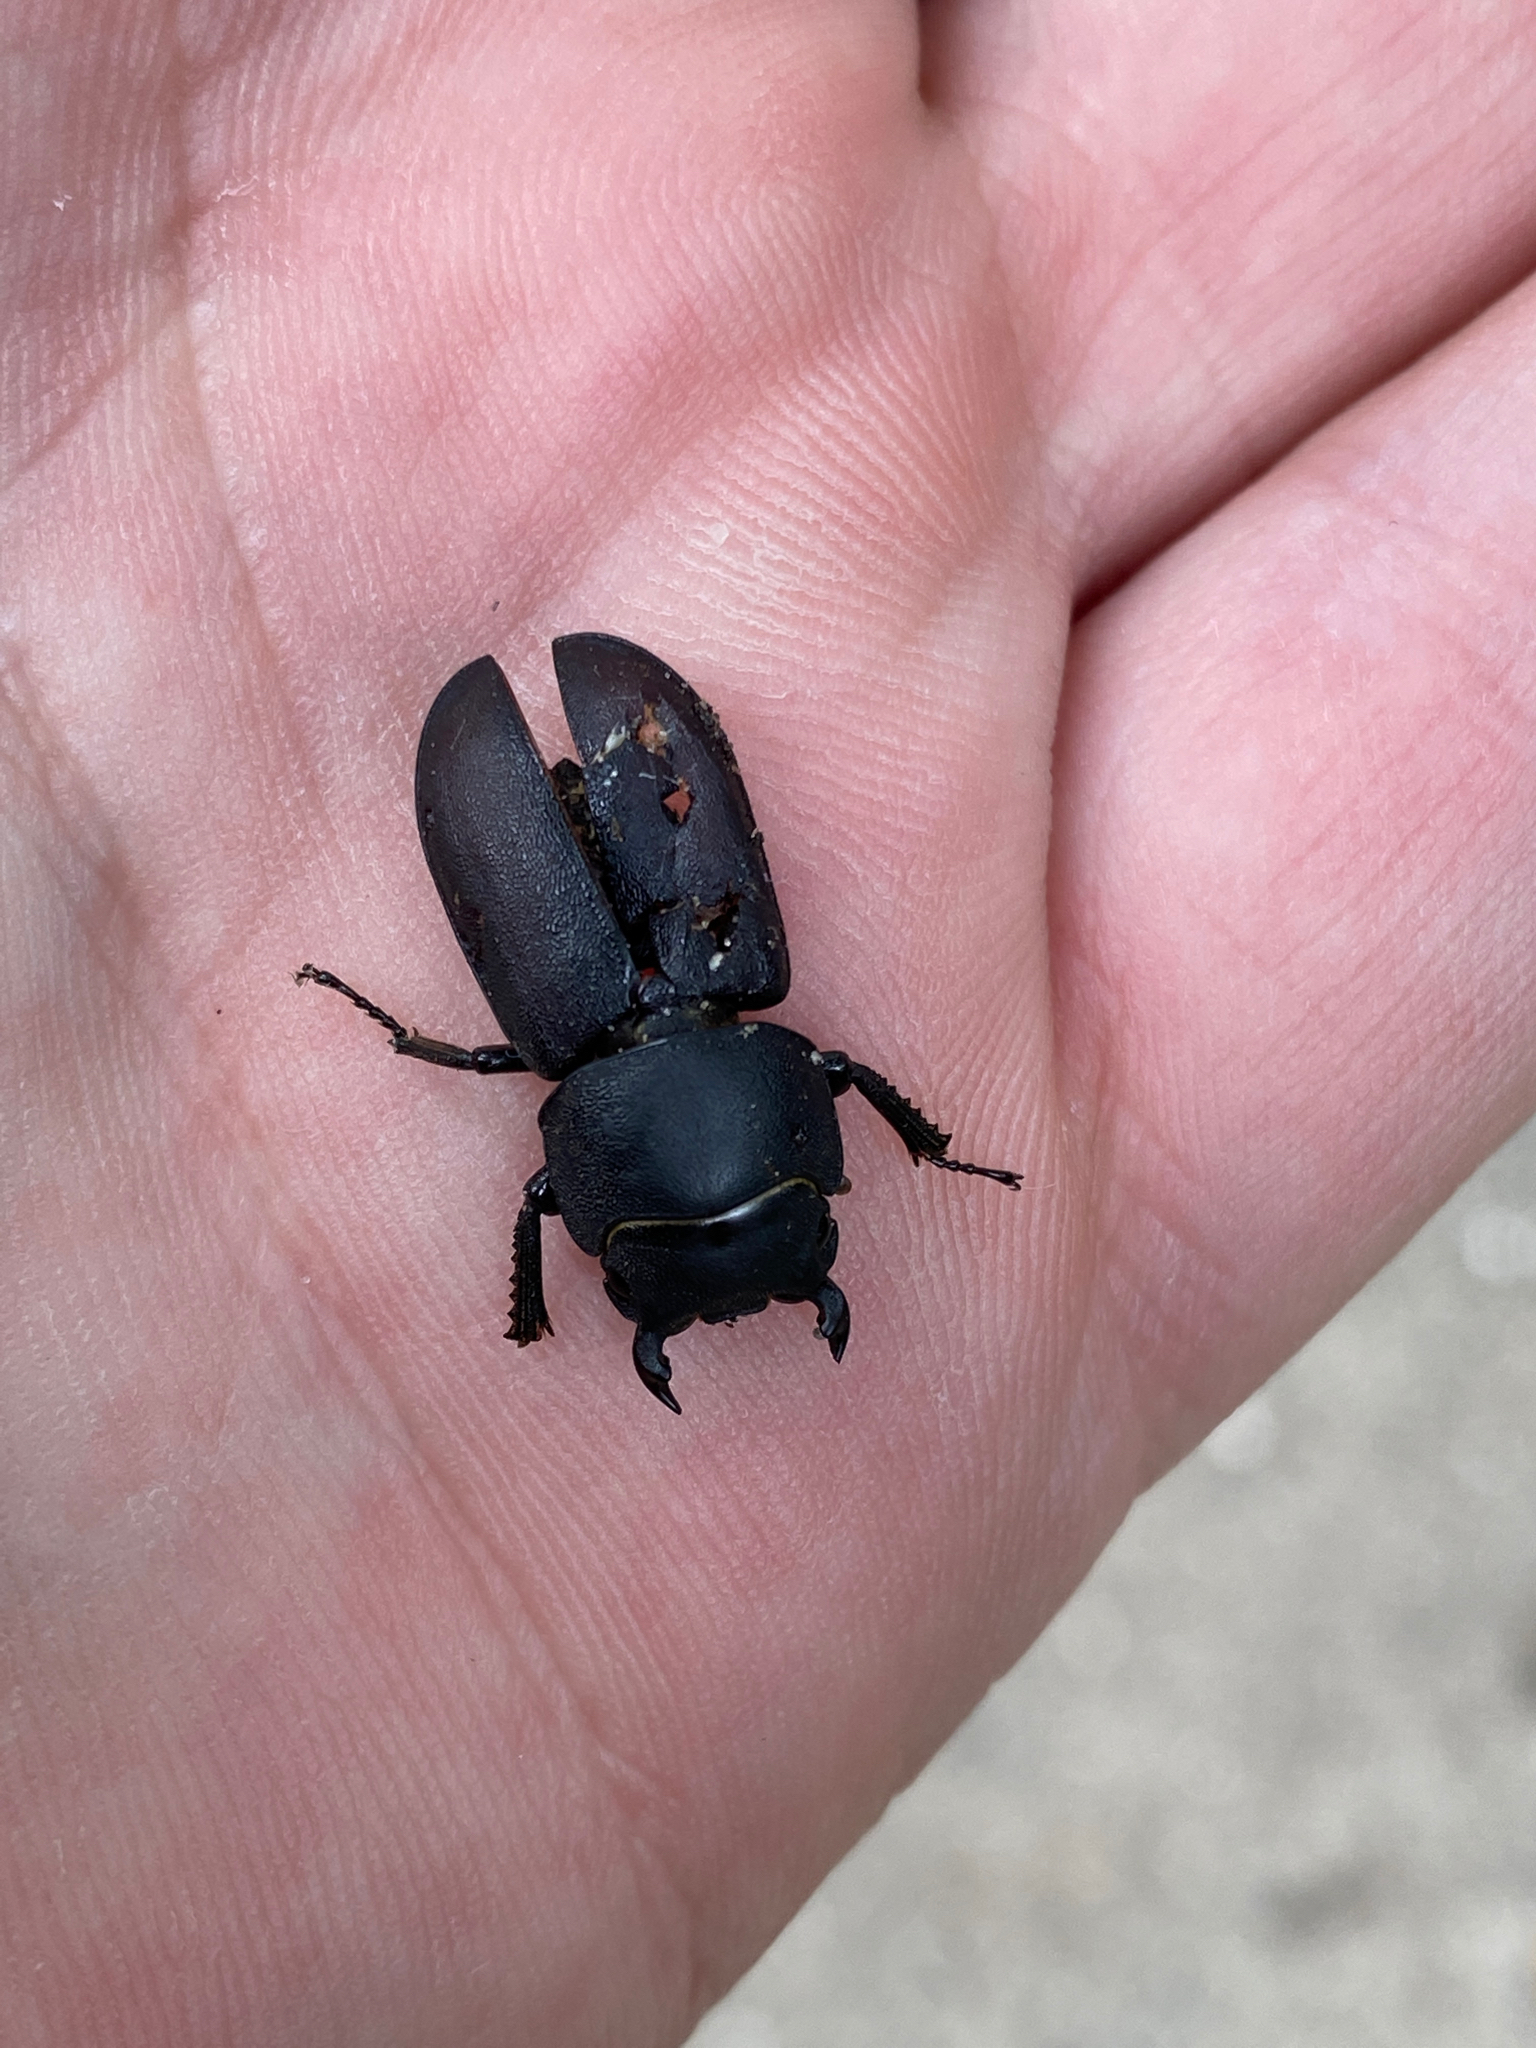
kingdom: Animalia
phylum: Arthropoda
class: Insecta
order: Coleoptera
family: Lucanidae
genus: Dorcus
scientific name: Dorcus parallelipipedus
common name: Lesser stag beetle
